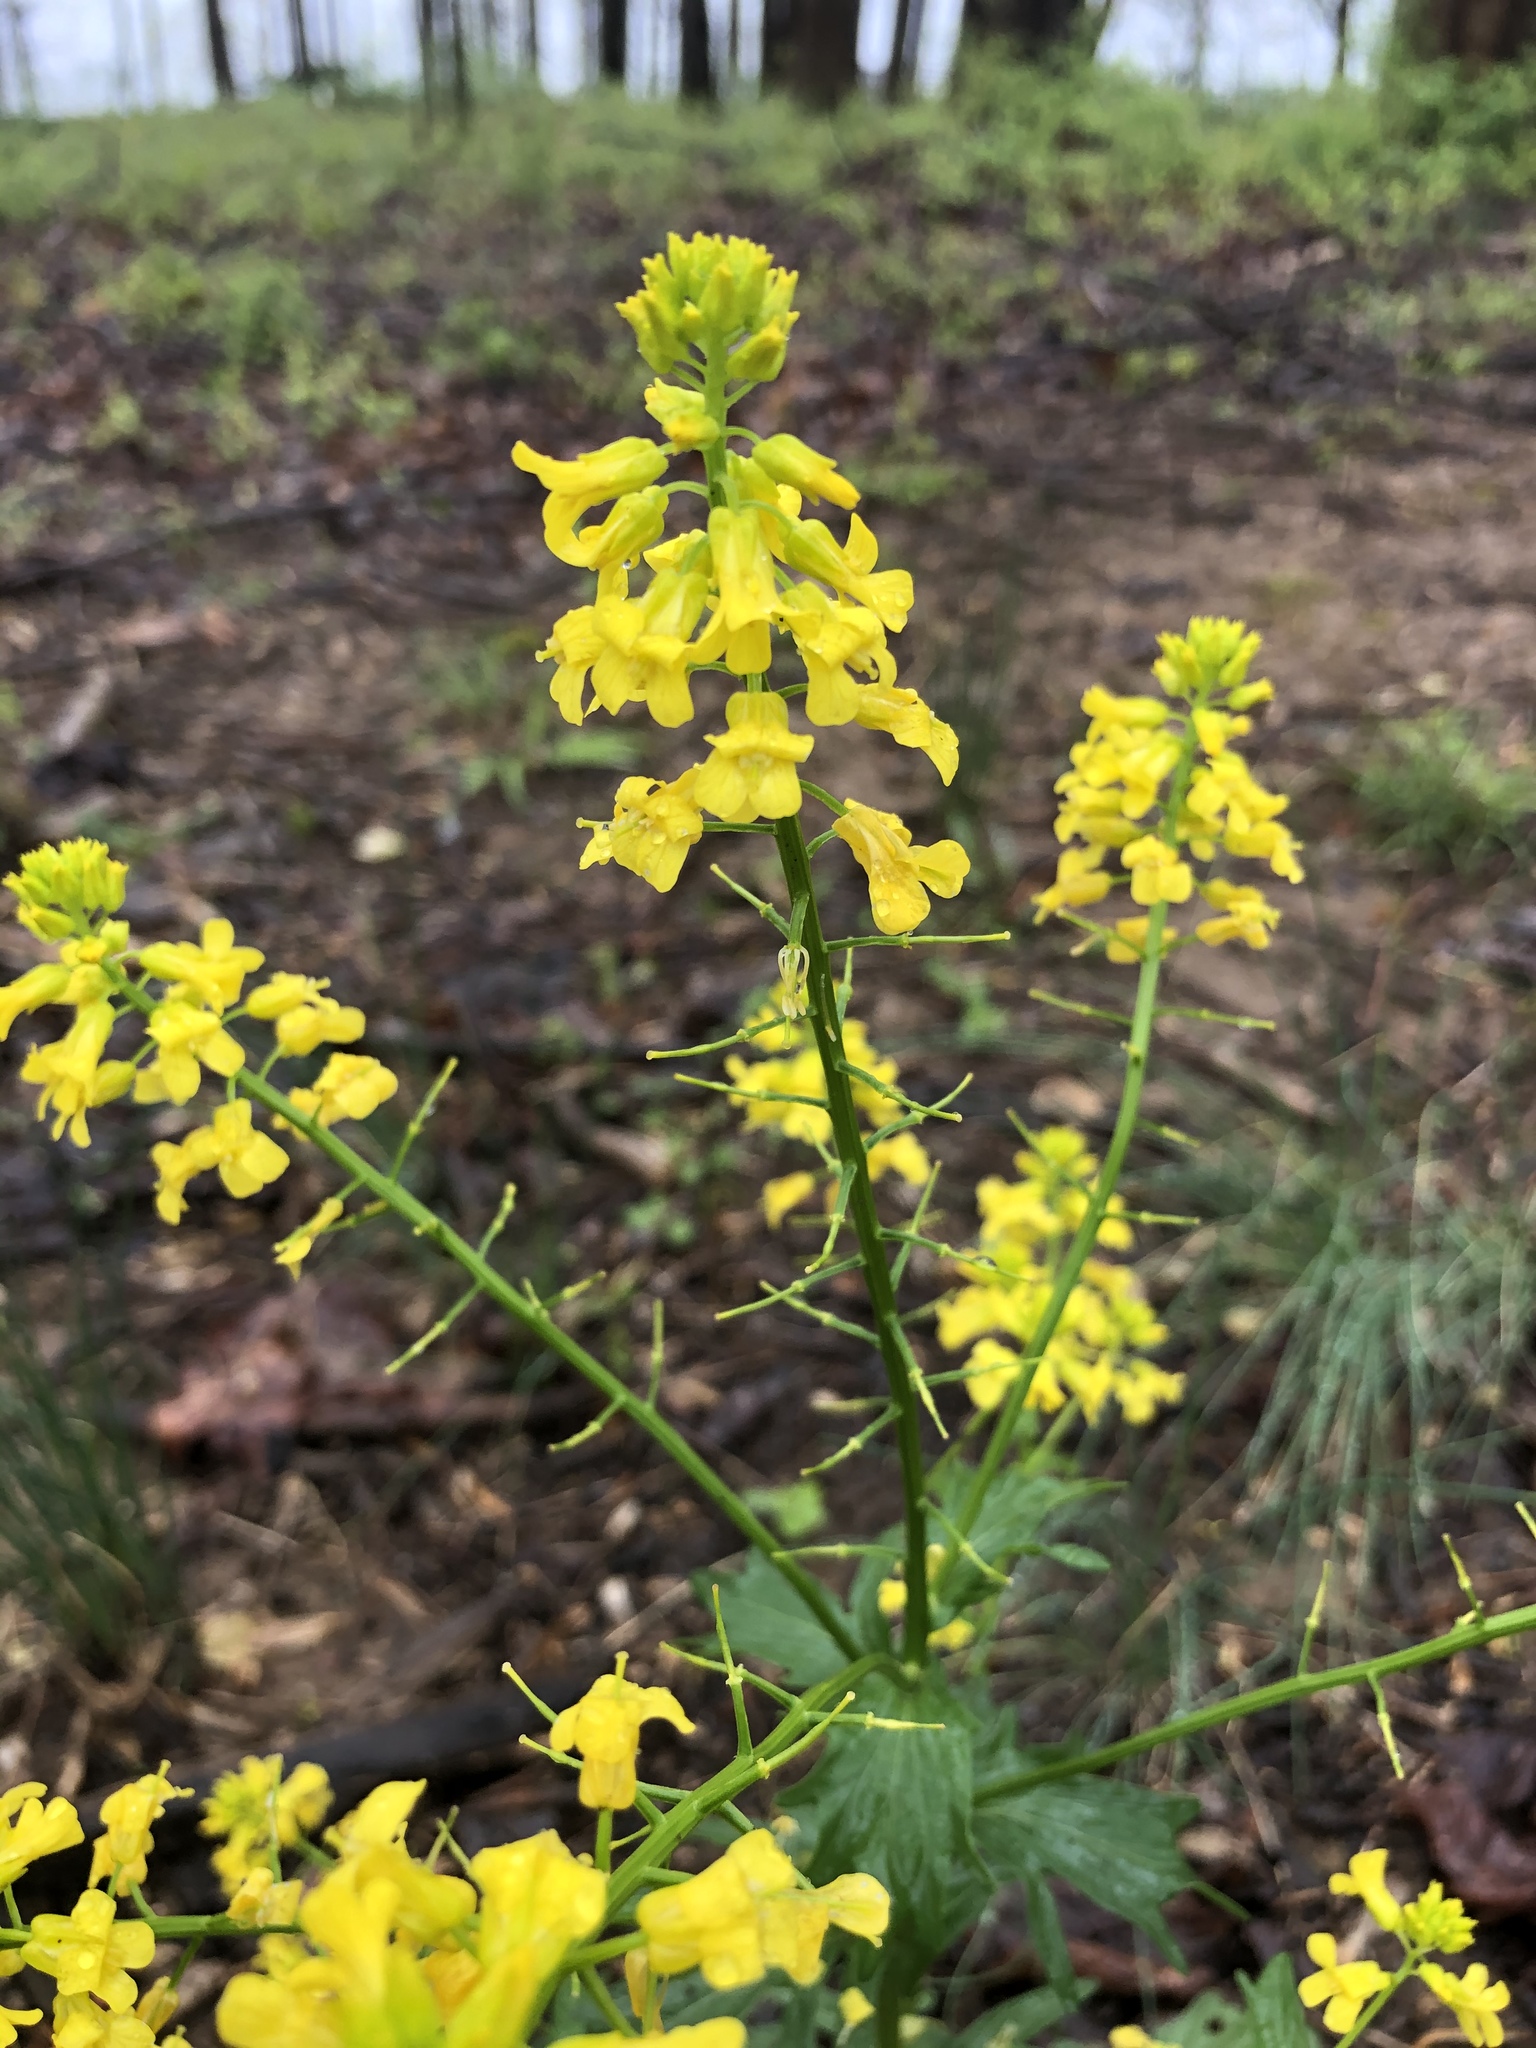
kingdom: Plantae
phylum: Tracheophyta
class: Magnoliopsida
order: Brassicales
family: Brassicaceae
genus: Barbarea
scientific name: Barbarea vulgaris
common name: Cressy-greens
